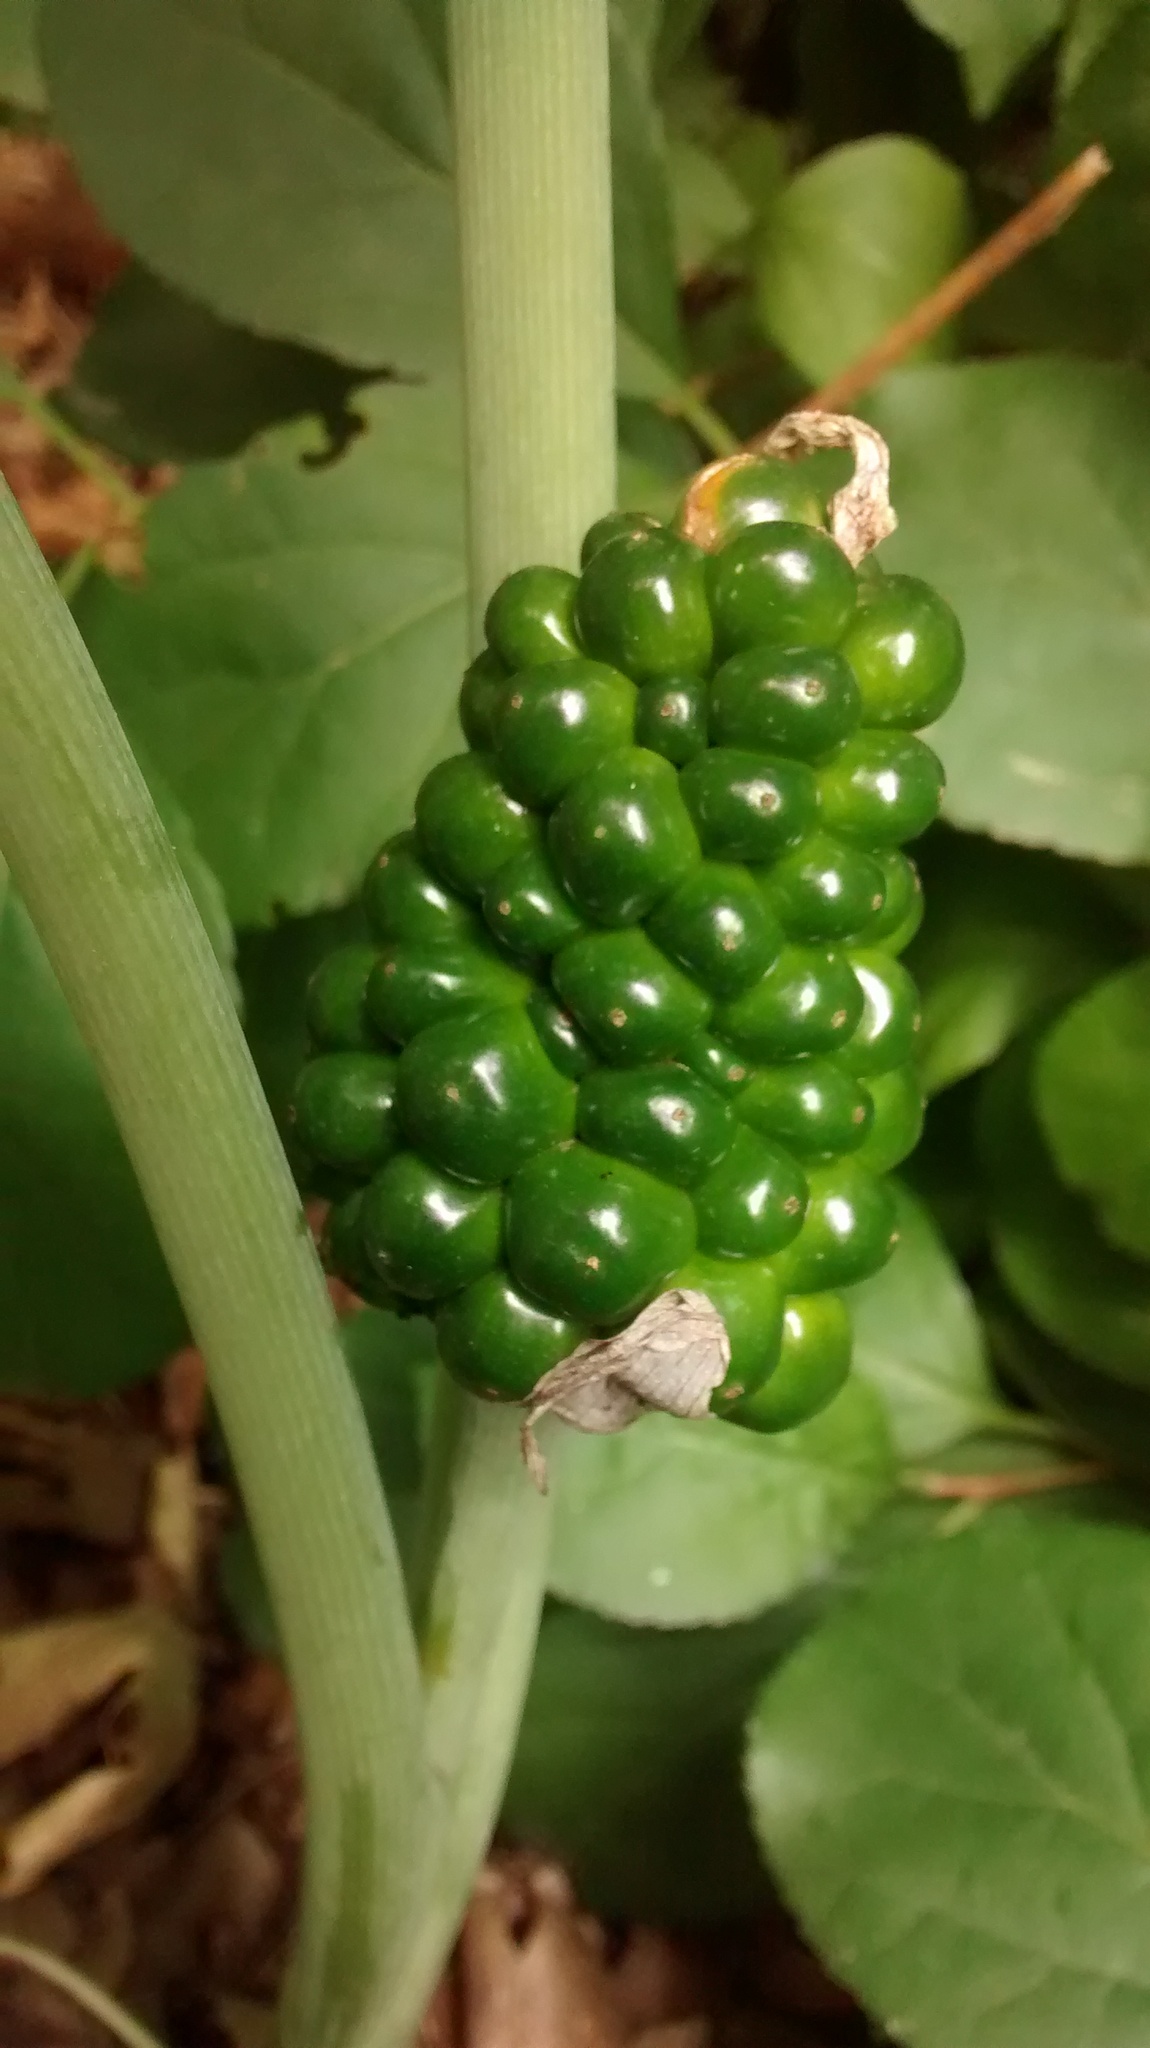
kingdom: Plantae
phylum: Tracheophyta
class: Liliopsida
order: Alismatales
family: Araceae
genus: Arisaema
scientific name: Arisaema triphyllum
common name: Jack-in-the-pulpit
